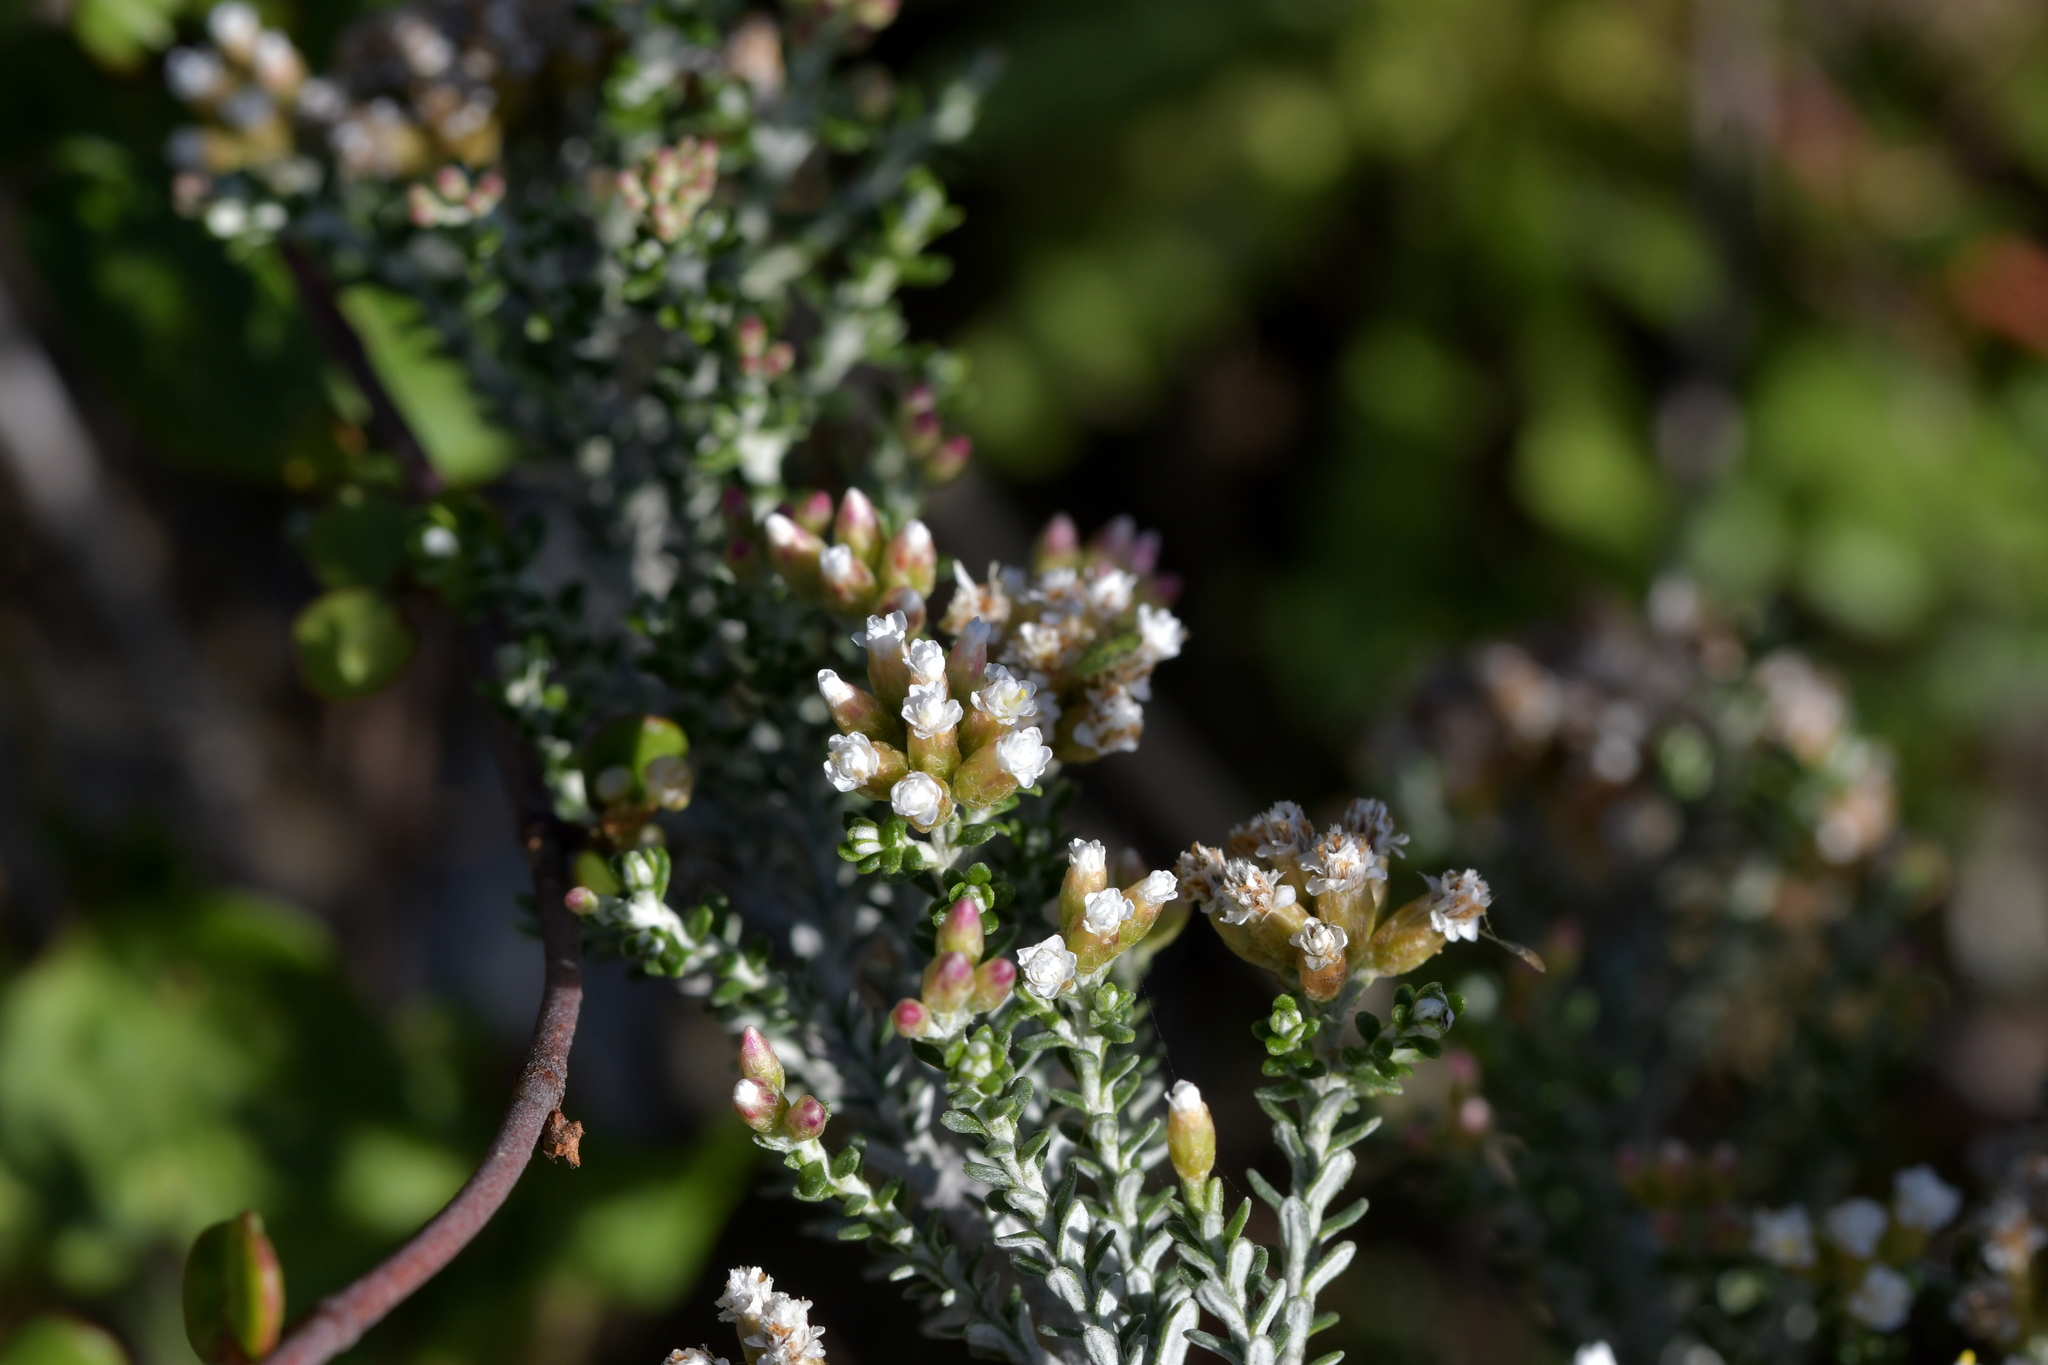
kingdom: Plantae
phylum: Tracheophyta
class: Magnoliopsida
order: Asterales
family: Asteraceae
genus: Ozothamnus
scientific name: Ozothamnus leptophyllus
